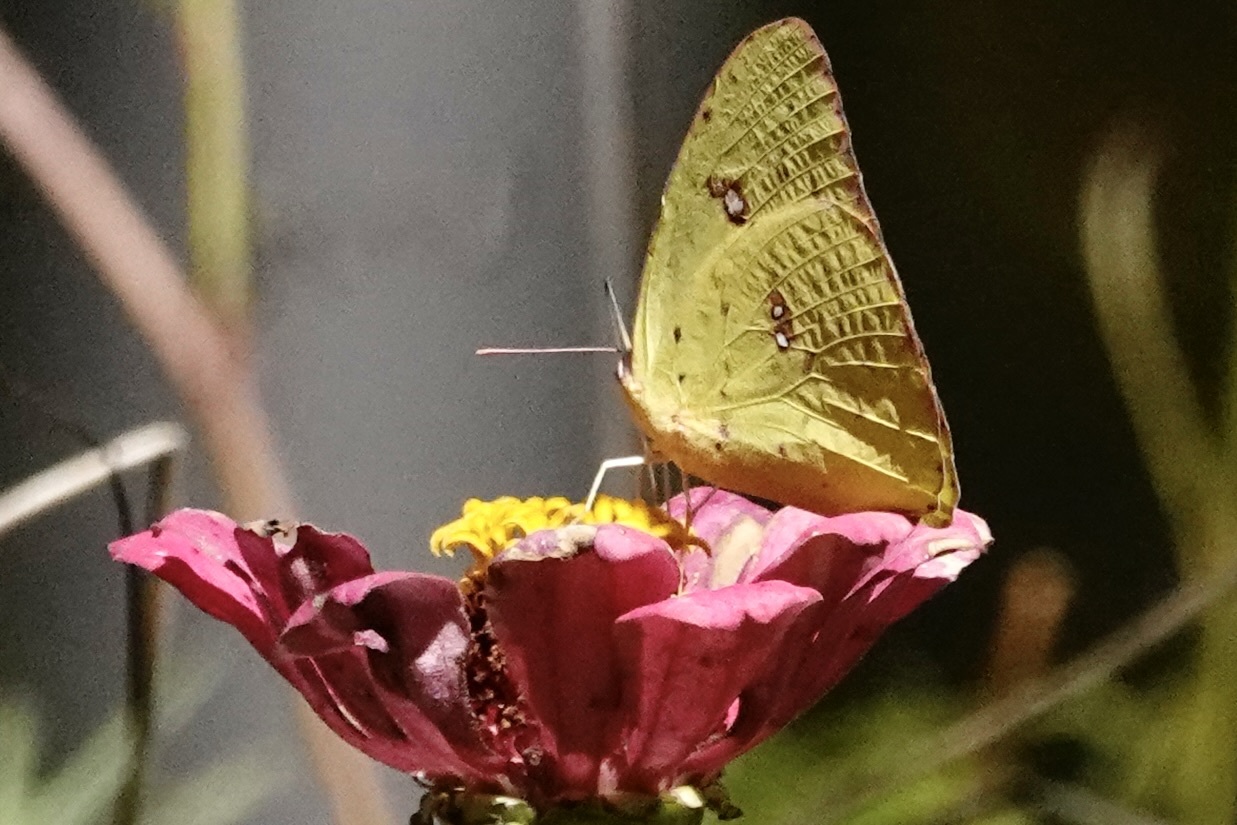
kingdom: Animalia
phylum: Arthropoda
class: Insecta
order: Lepidoptera
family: Pieridae
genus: Phoebis
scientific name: Phoebis sennae
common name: Cloudless sulphur
